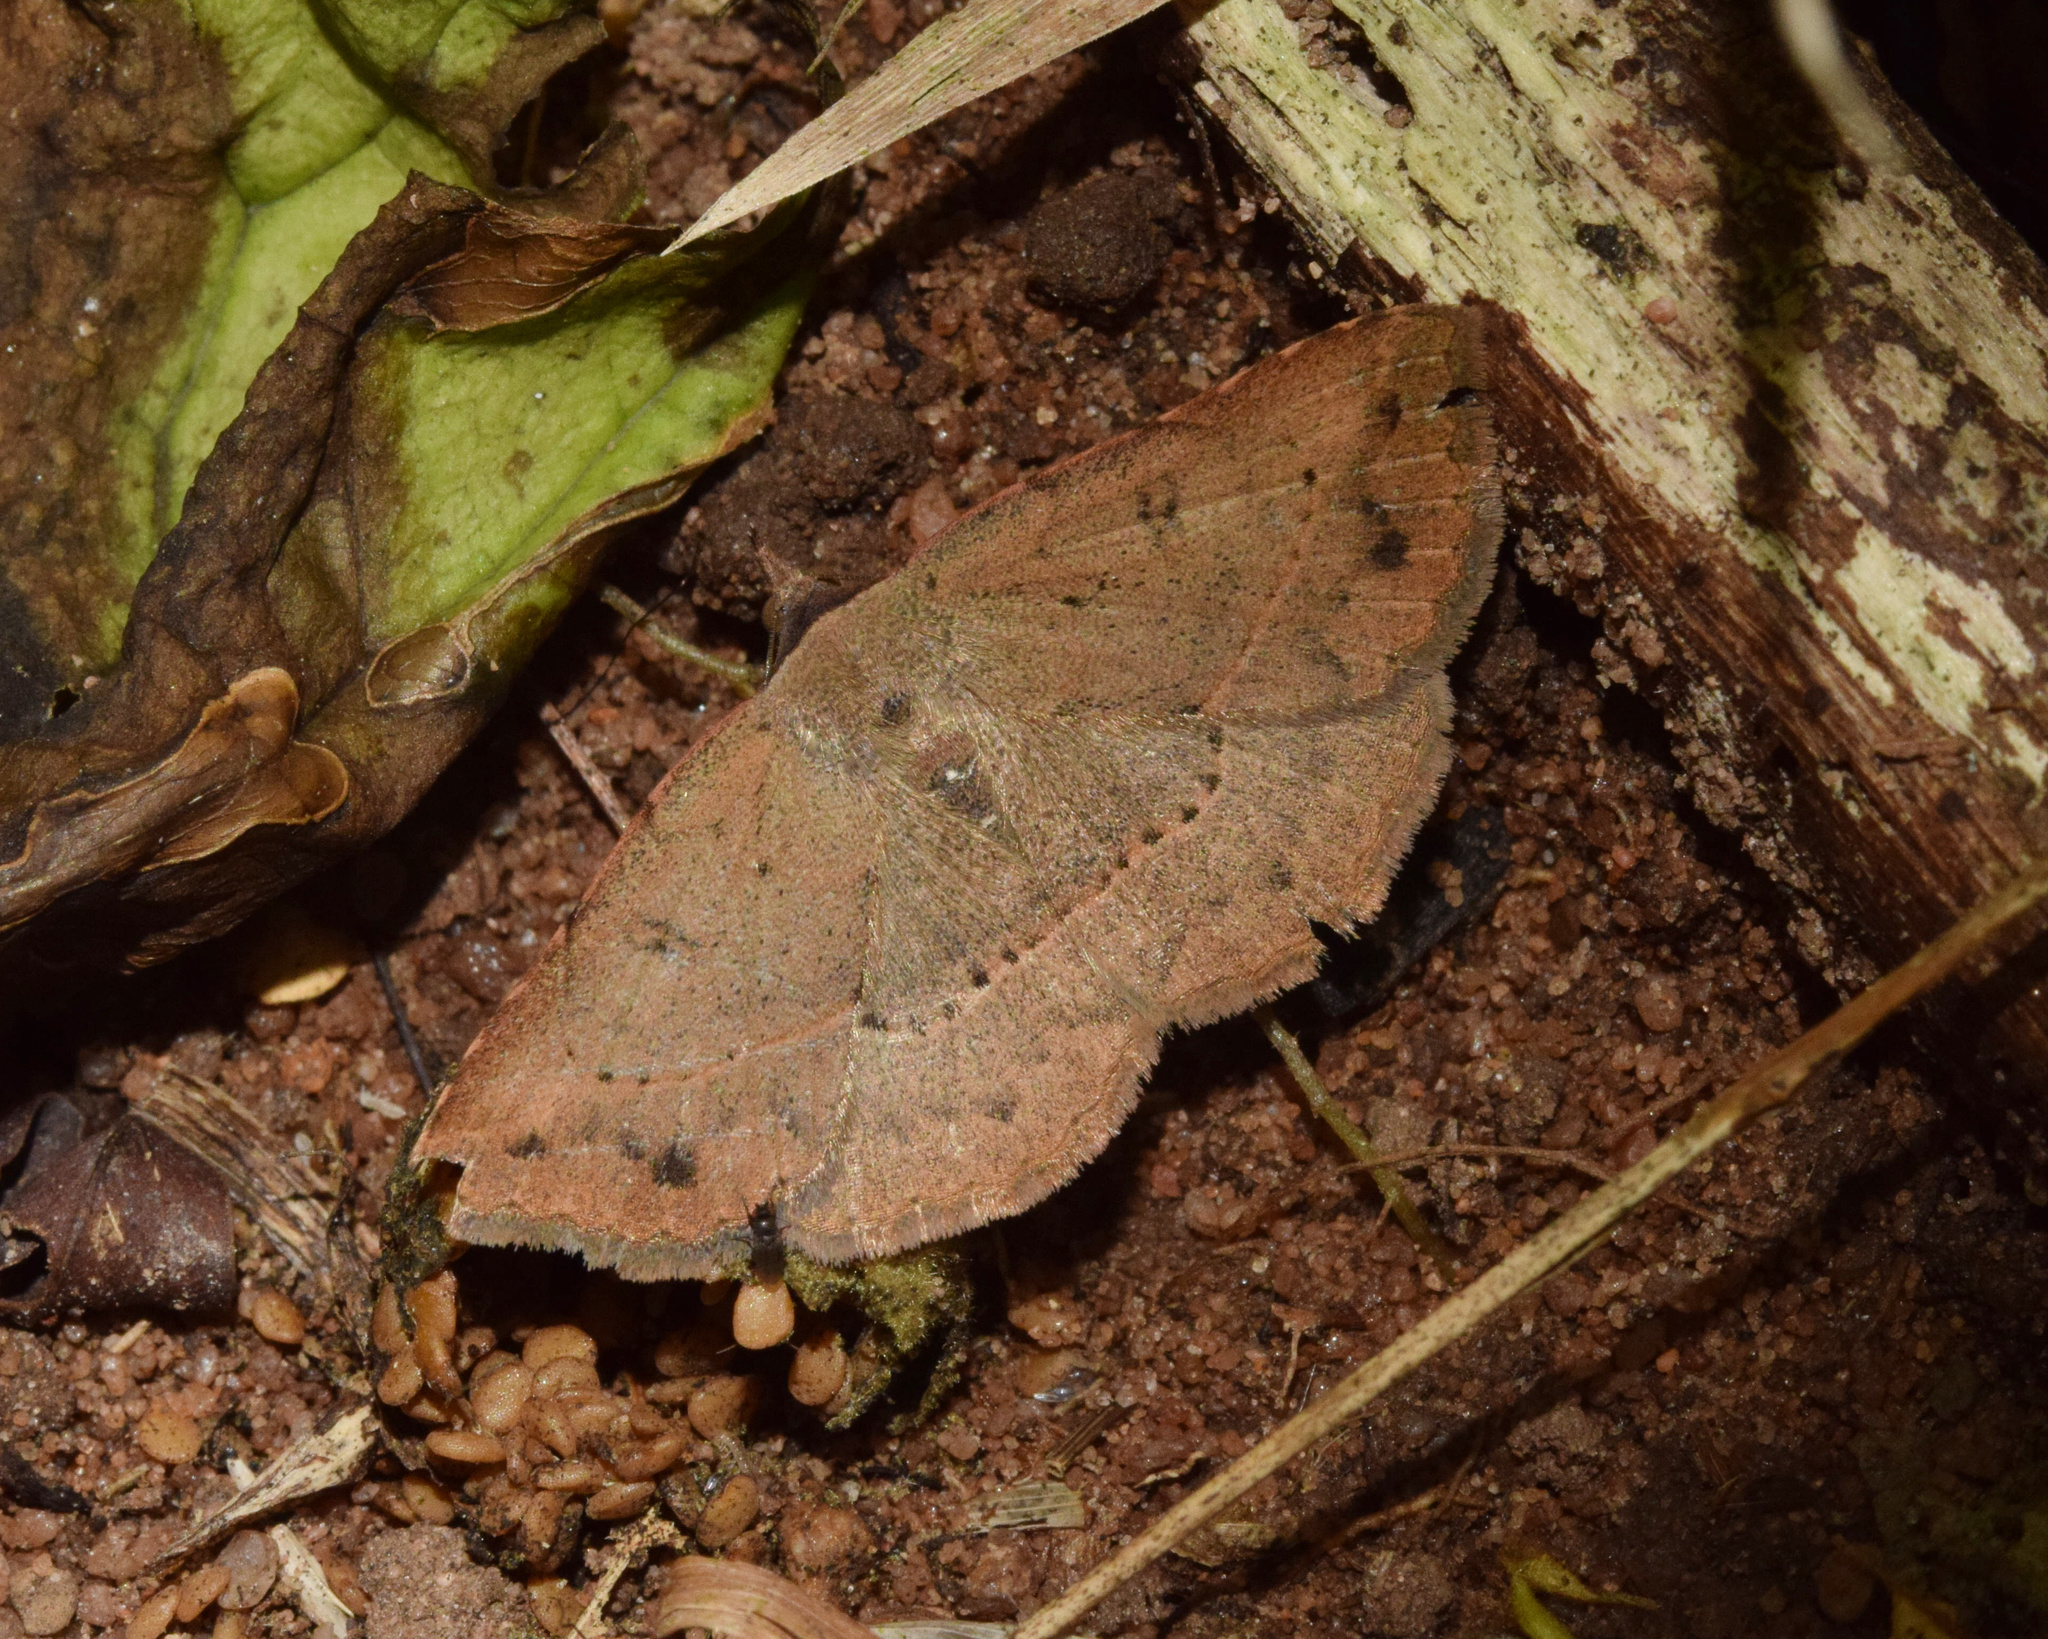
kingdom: Animalia
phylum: Arthropoda
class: Insecta
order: Lepidoptera
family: Erebidae
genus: Maxera
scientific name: Maxera zygia
